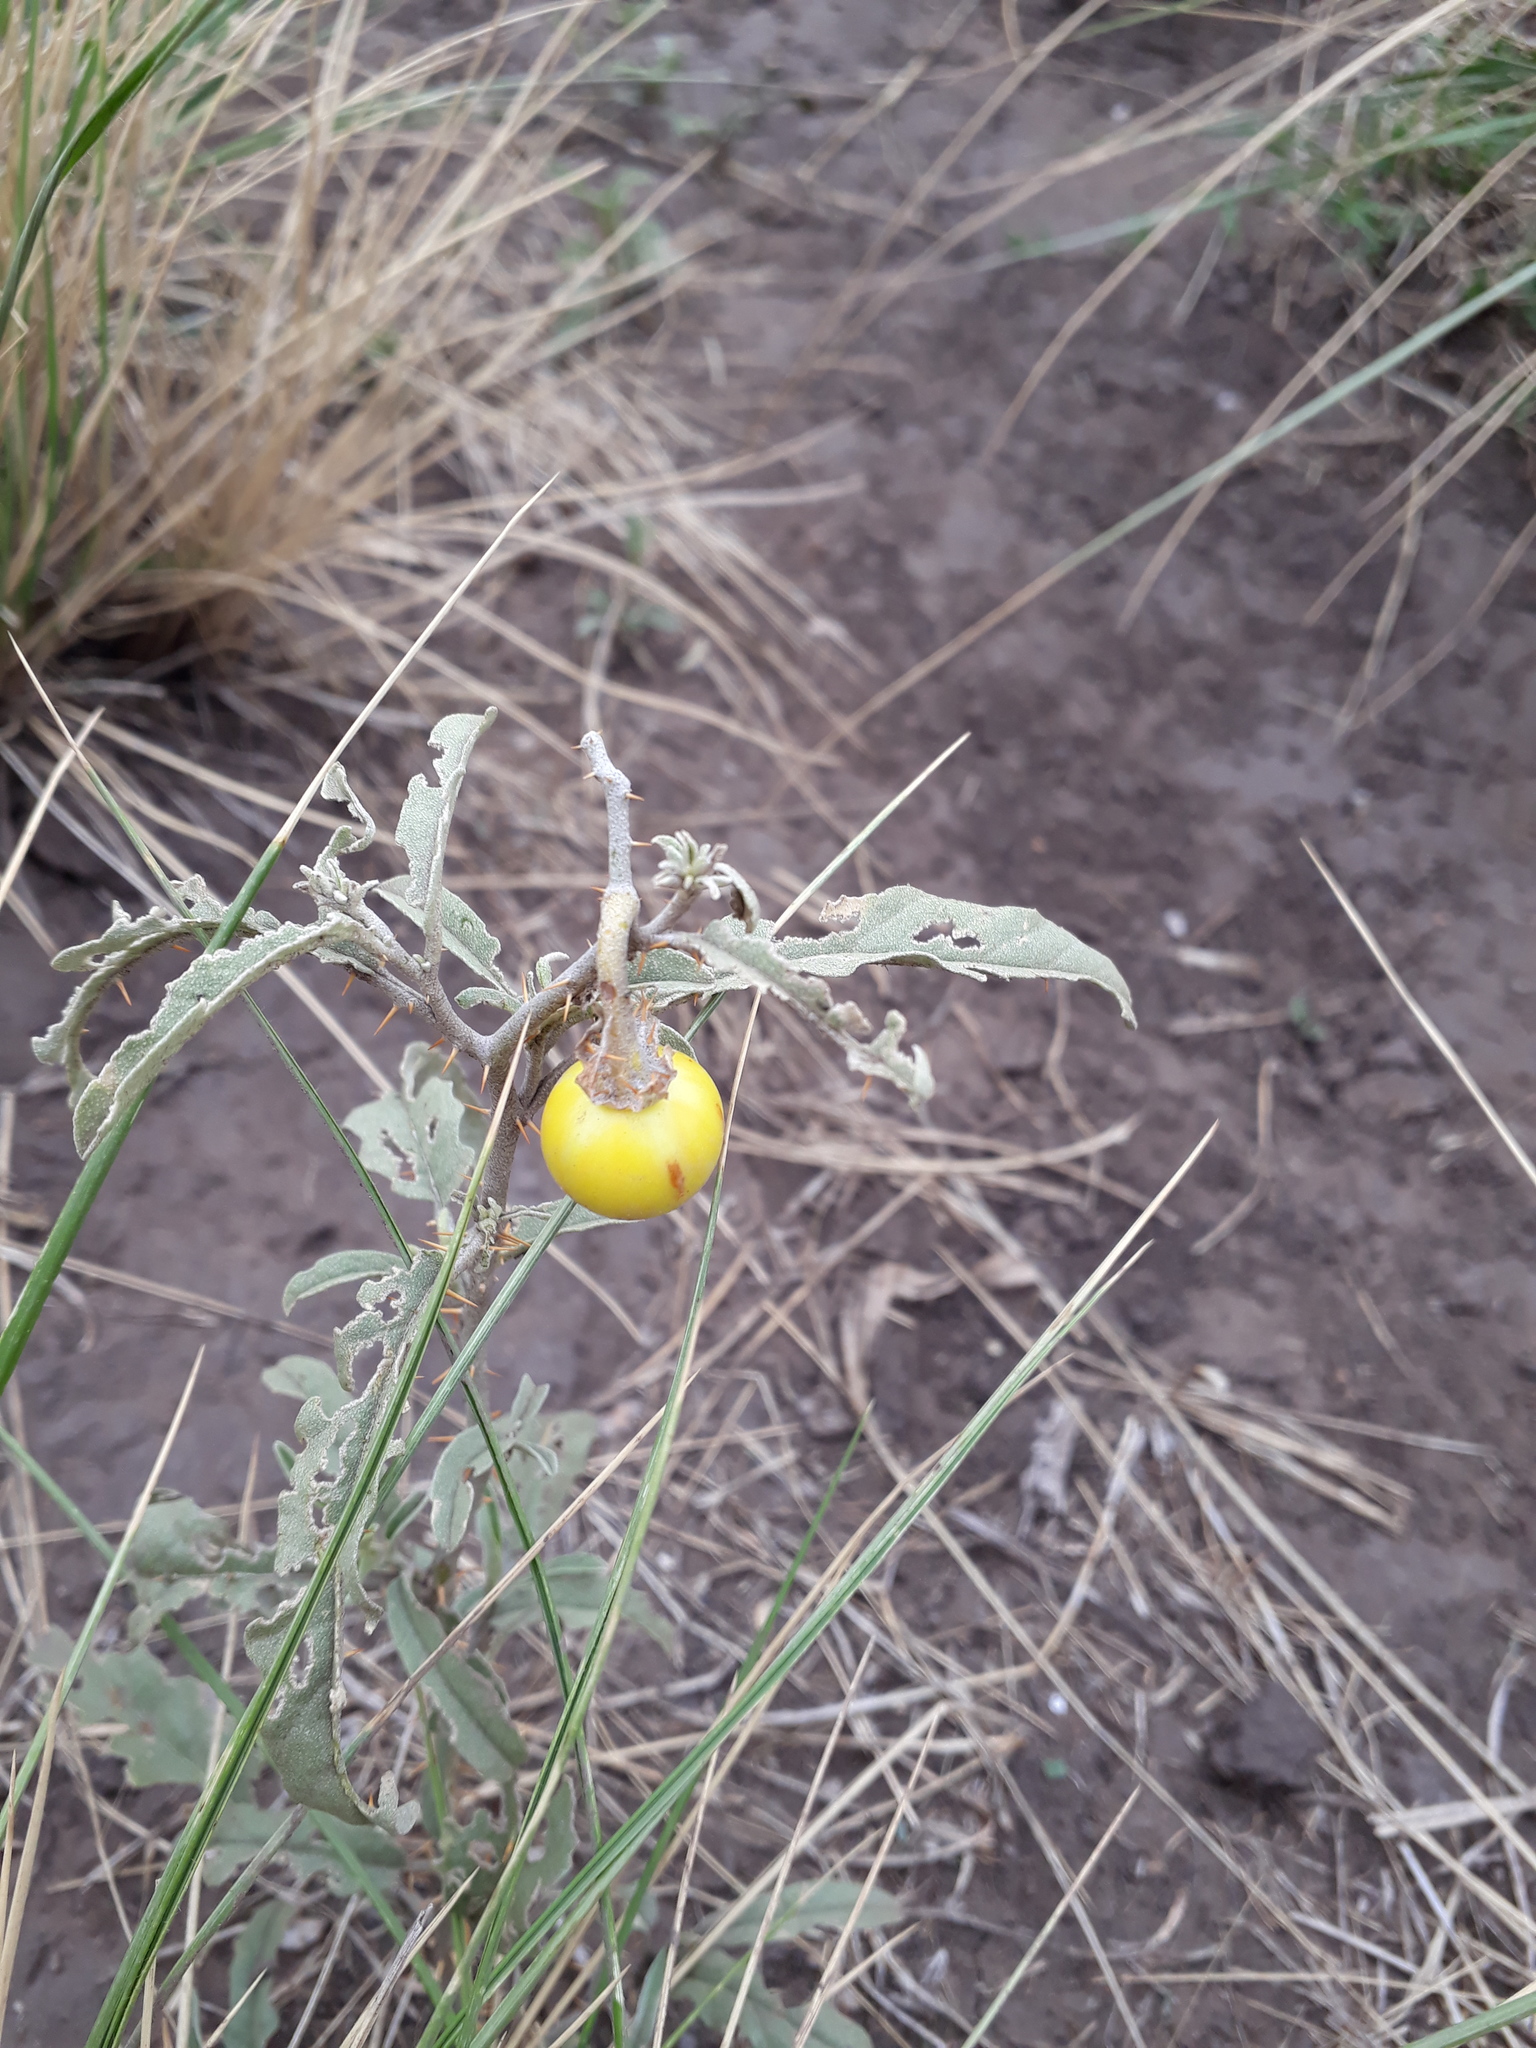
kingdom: Plantae
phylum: Tracheophyta
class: Magnoliopsida
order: Solanales
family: Solanaceae
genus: Solanum
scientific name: Solanum elaeagnifolium
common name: Silverleaf nightshade
